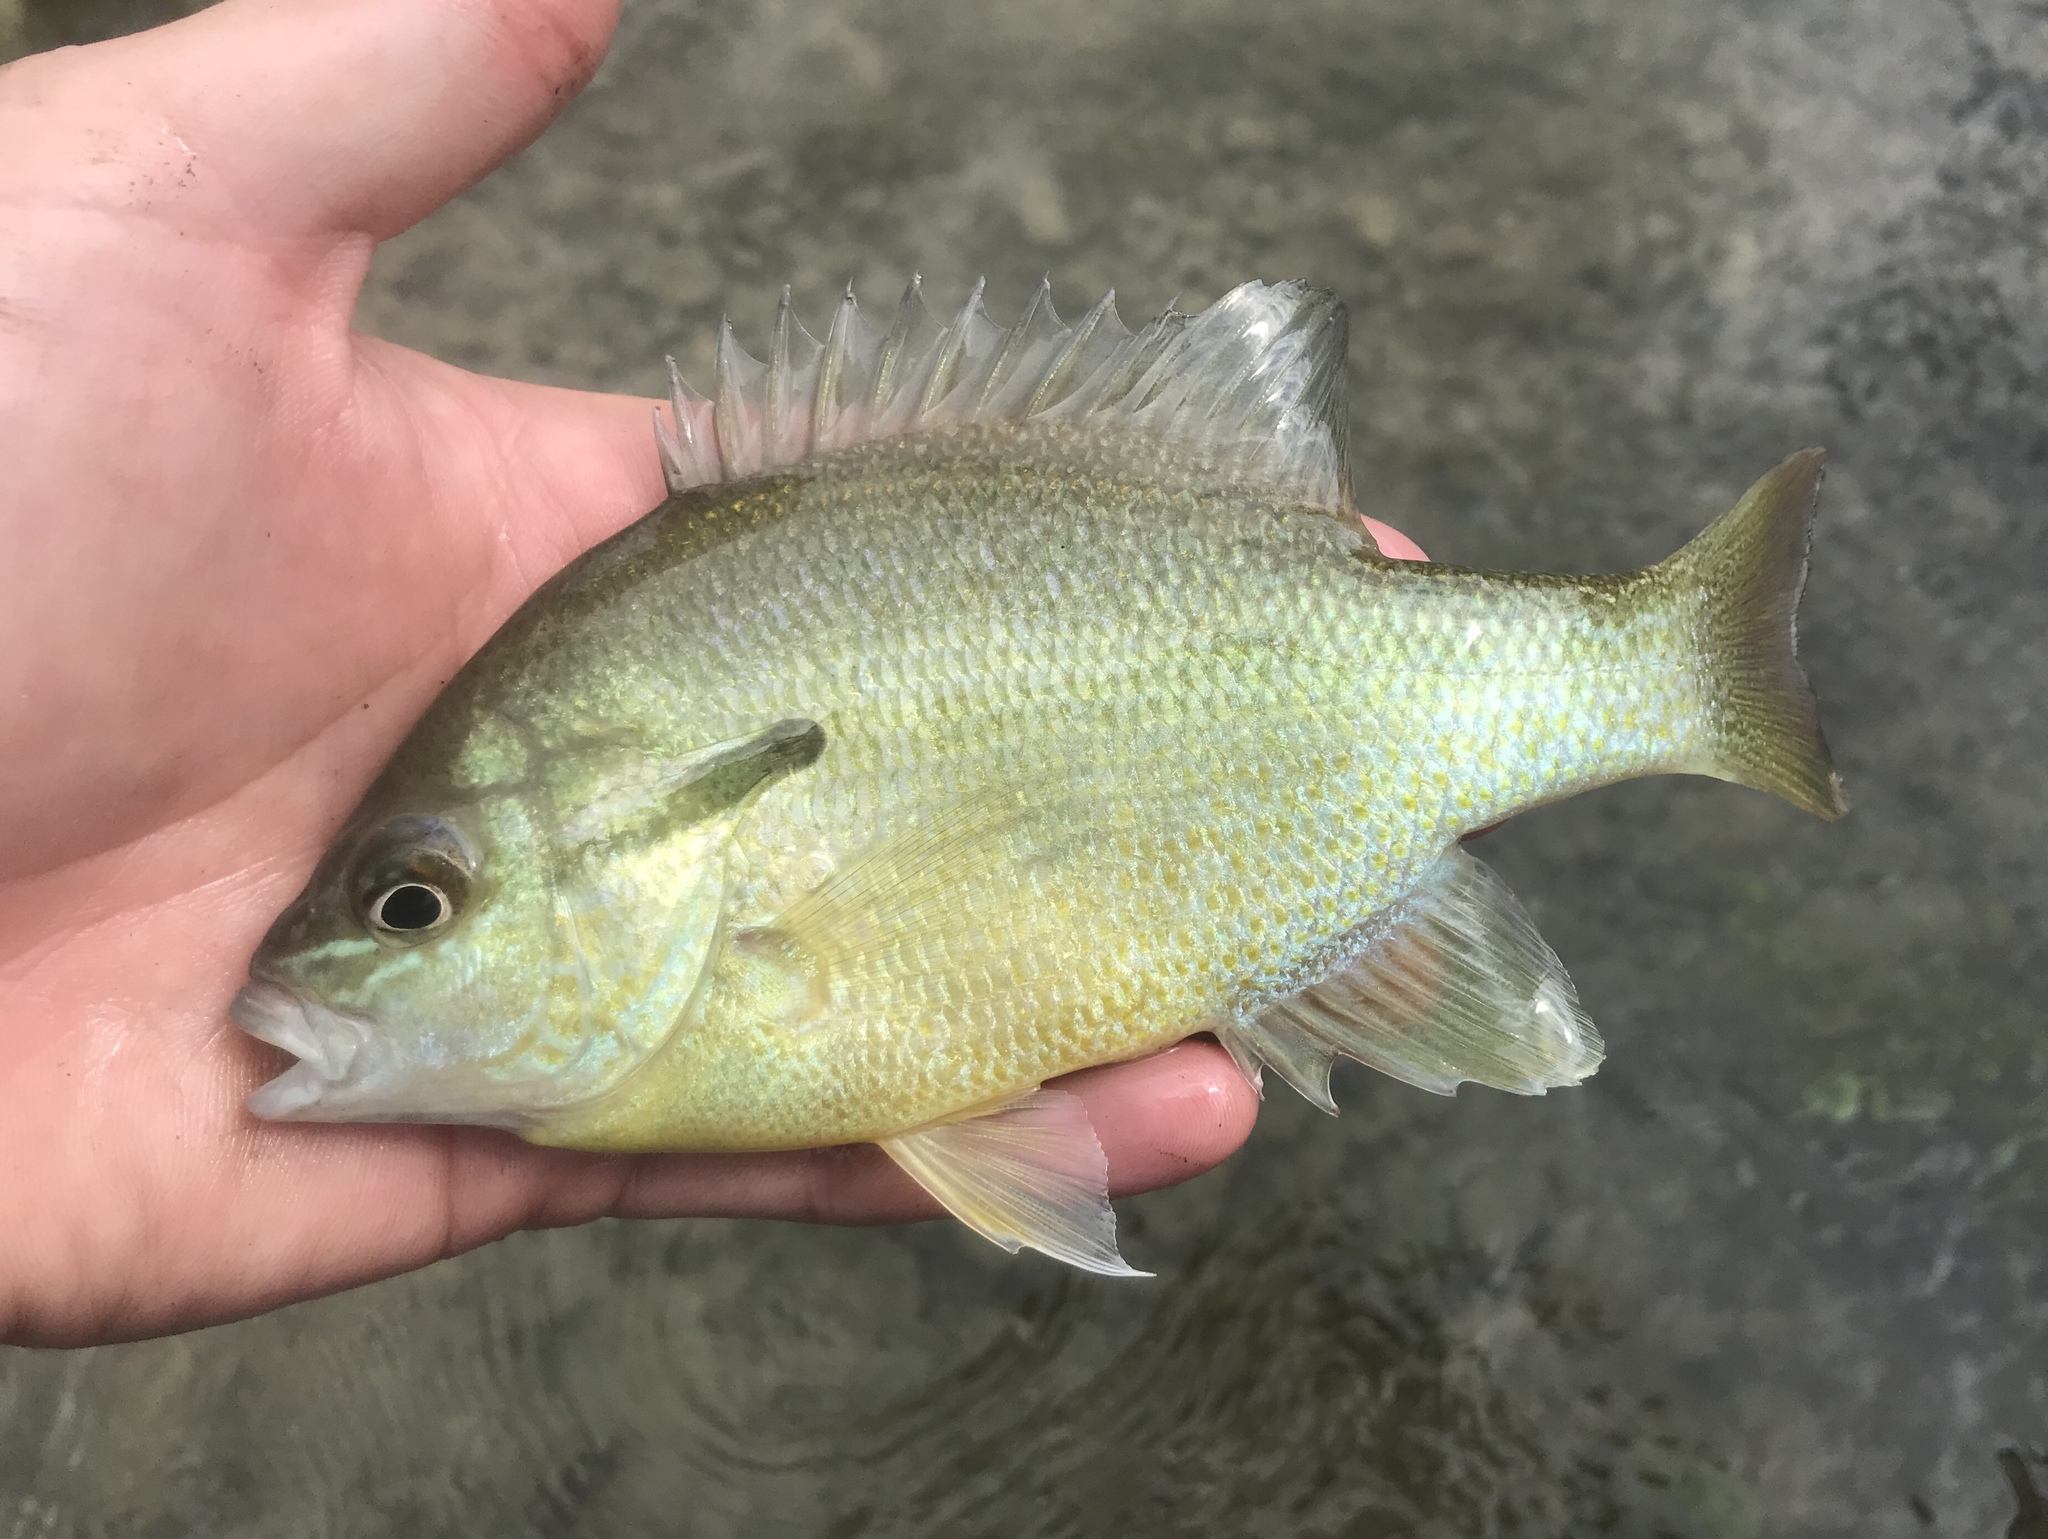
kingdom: Animalia
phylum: Chordata
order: Perciformes
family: Centrarchidae
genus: Lepomis
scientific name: Lepomis auritus
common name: Redbreast sunfish
